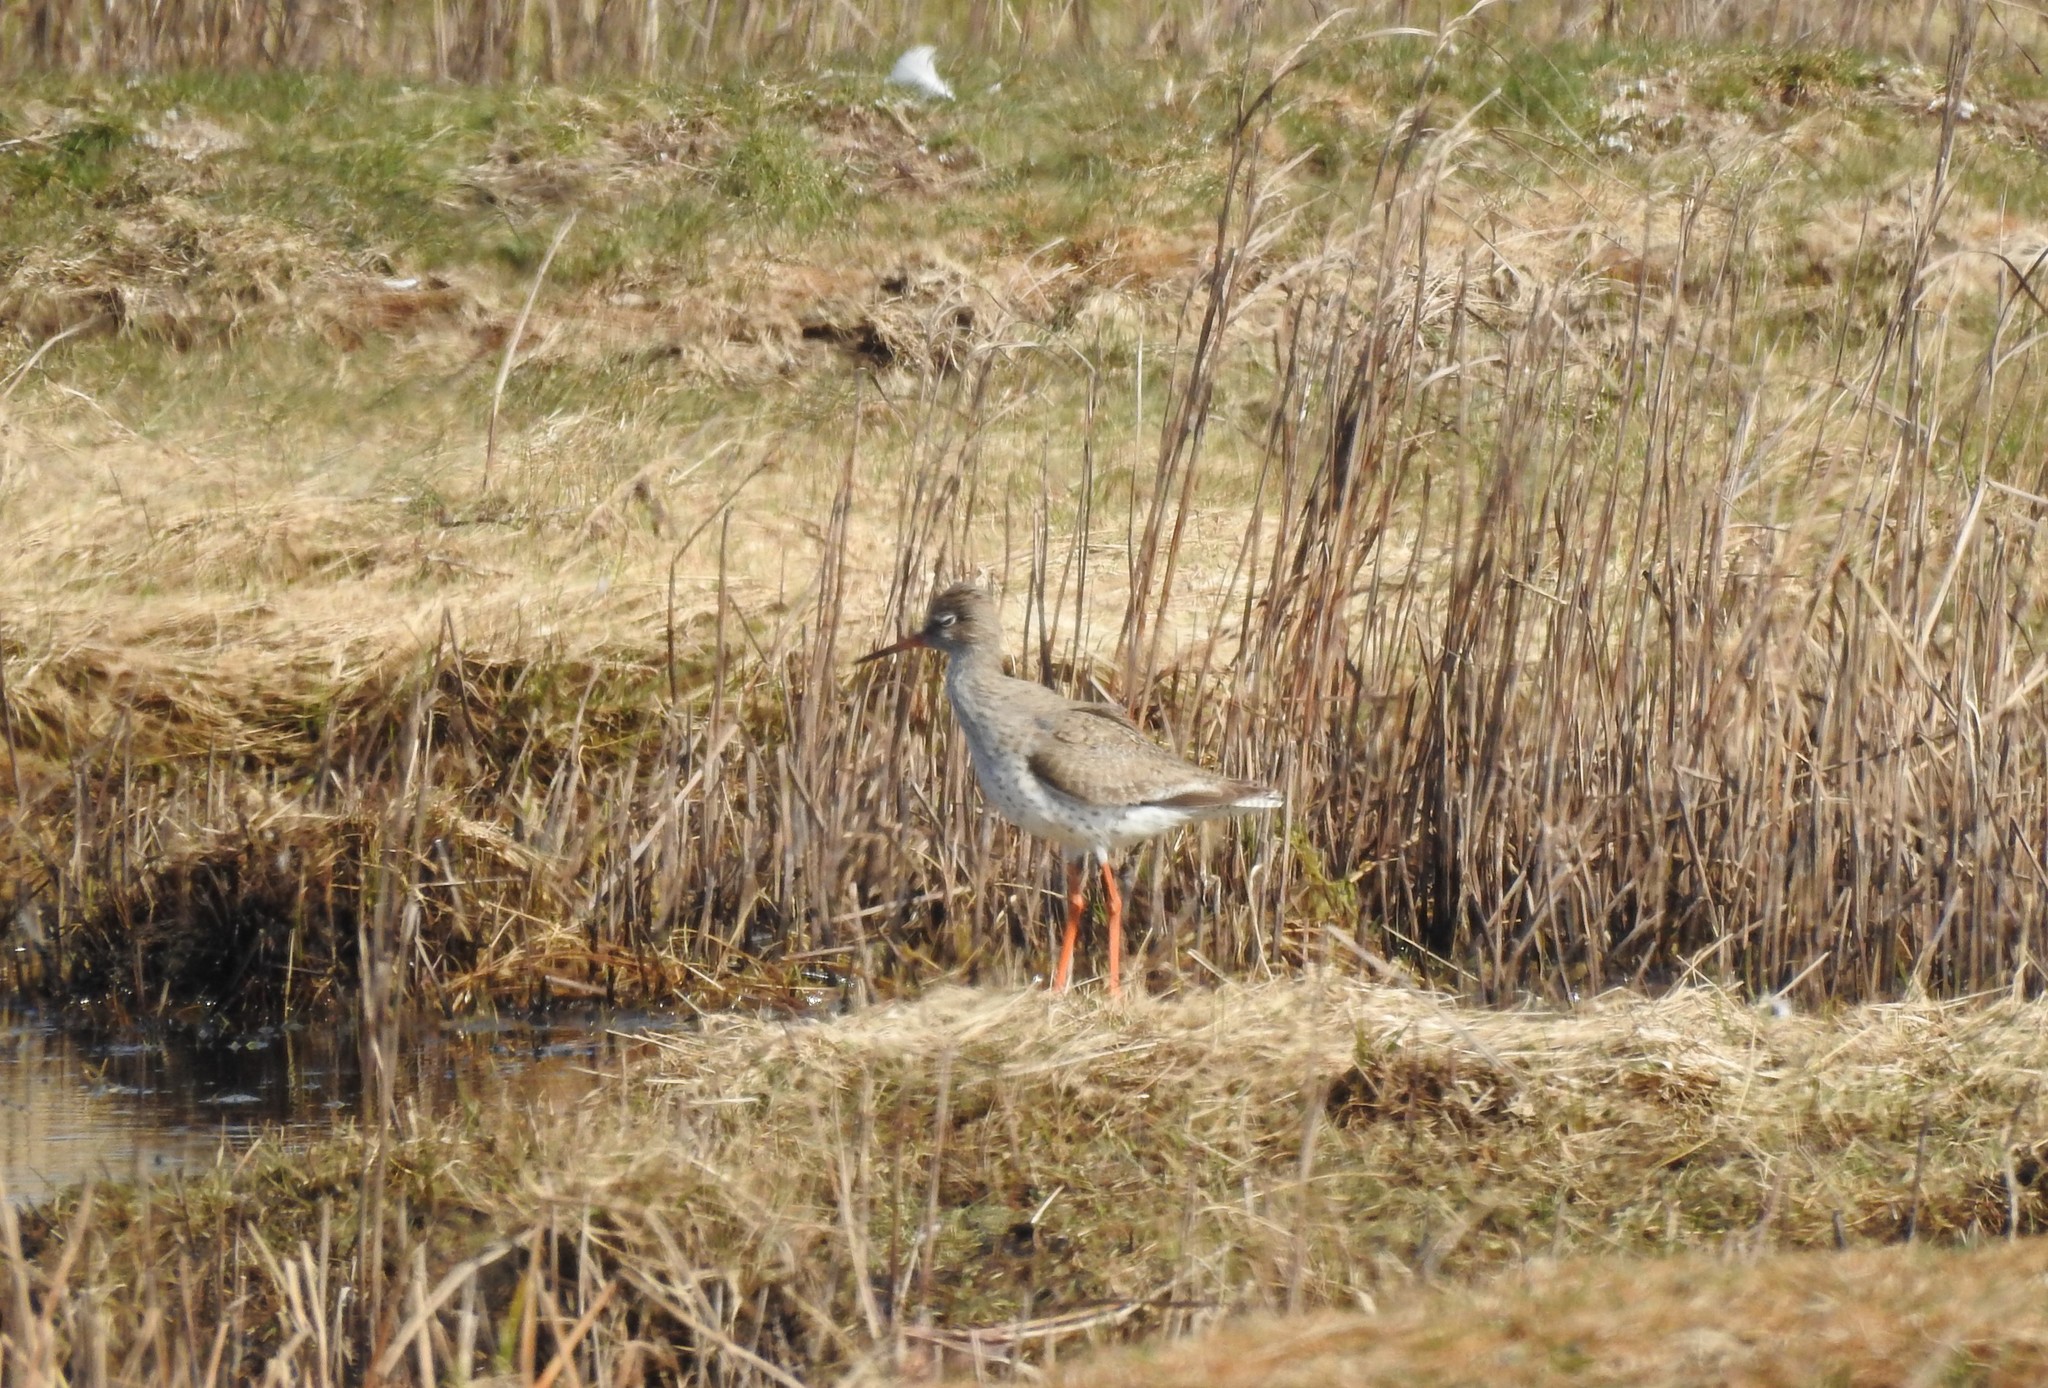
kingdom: Animalia
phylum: Chordata
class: Aves
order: Charadriiformes
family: Scolopacidae
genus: Tringa
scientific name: Tringa totanus
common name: Common redshank
